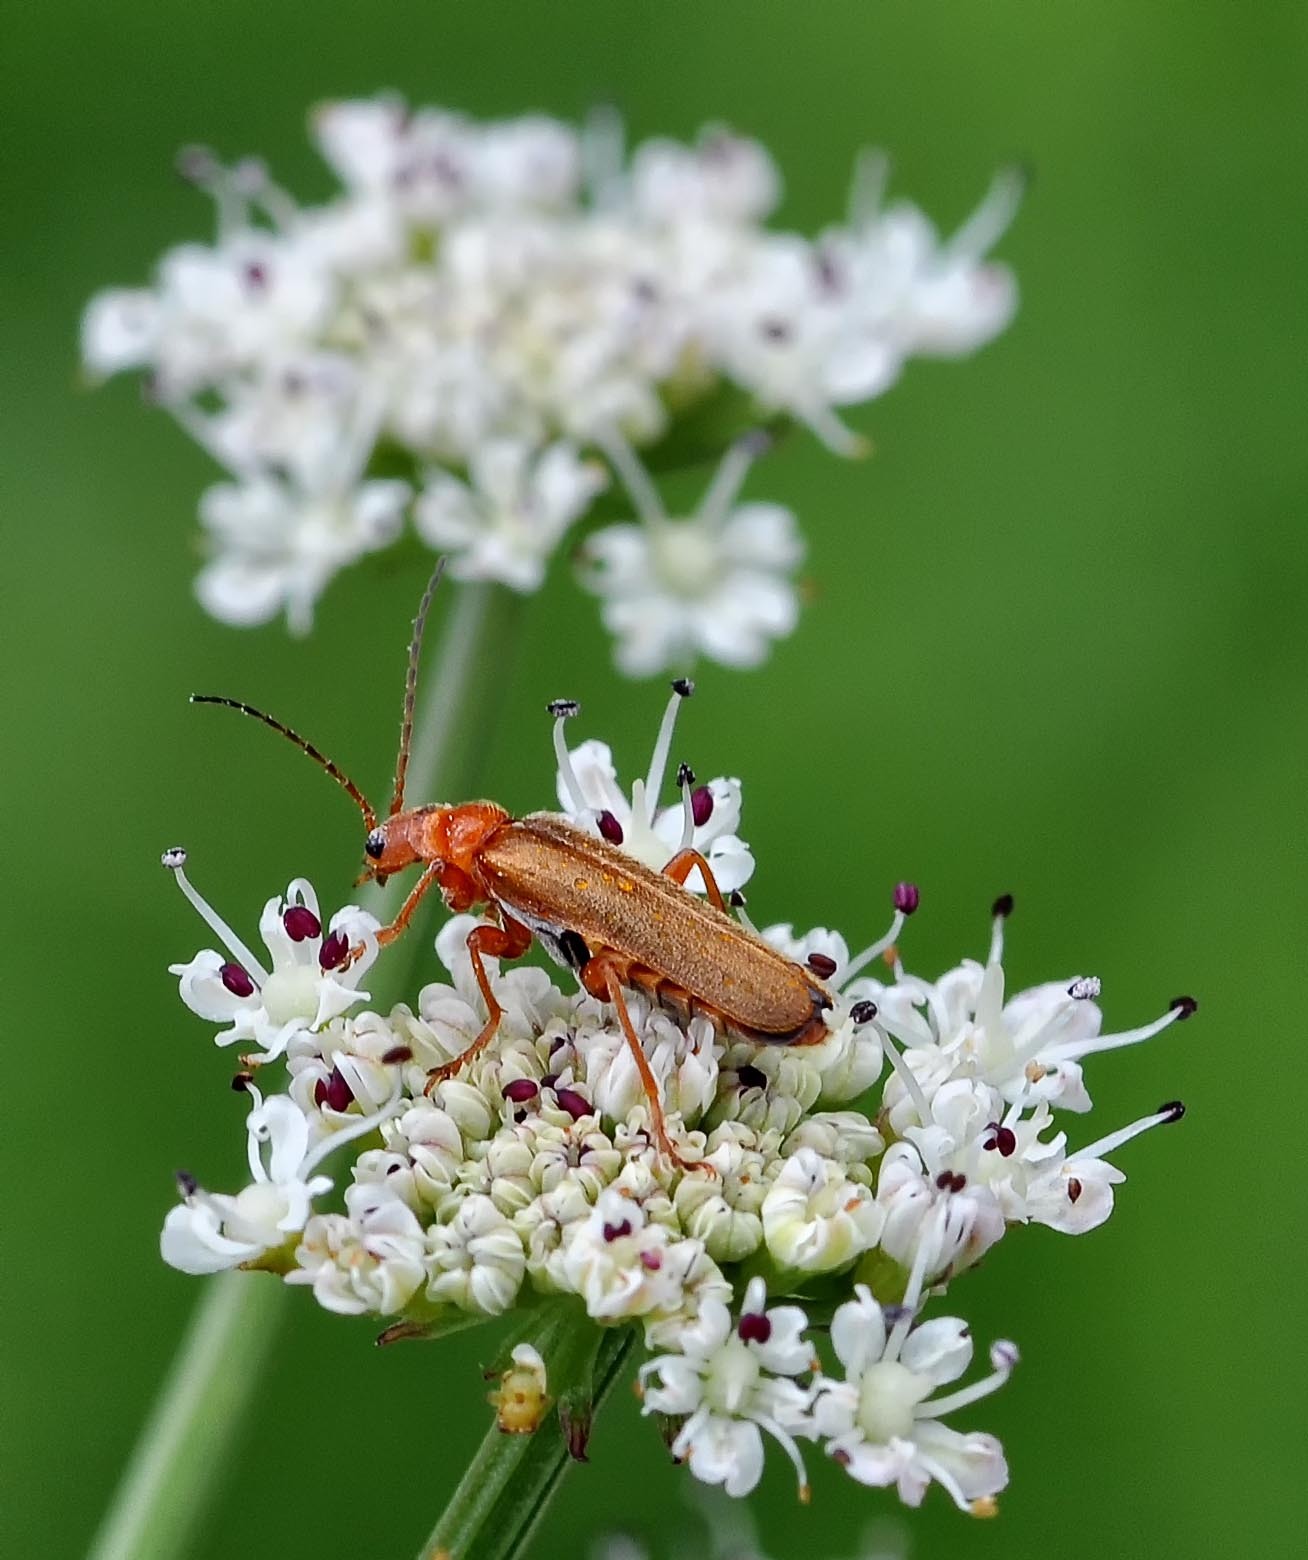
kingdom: Animalia
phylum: Arthropoda
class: Insecta
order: Coleoptera
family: Cantharidae
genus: Cantharis
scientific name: Cantharis rufa
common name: Red-spotted soldier beetle
